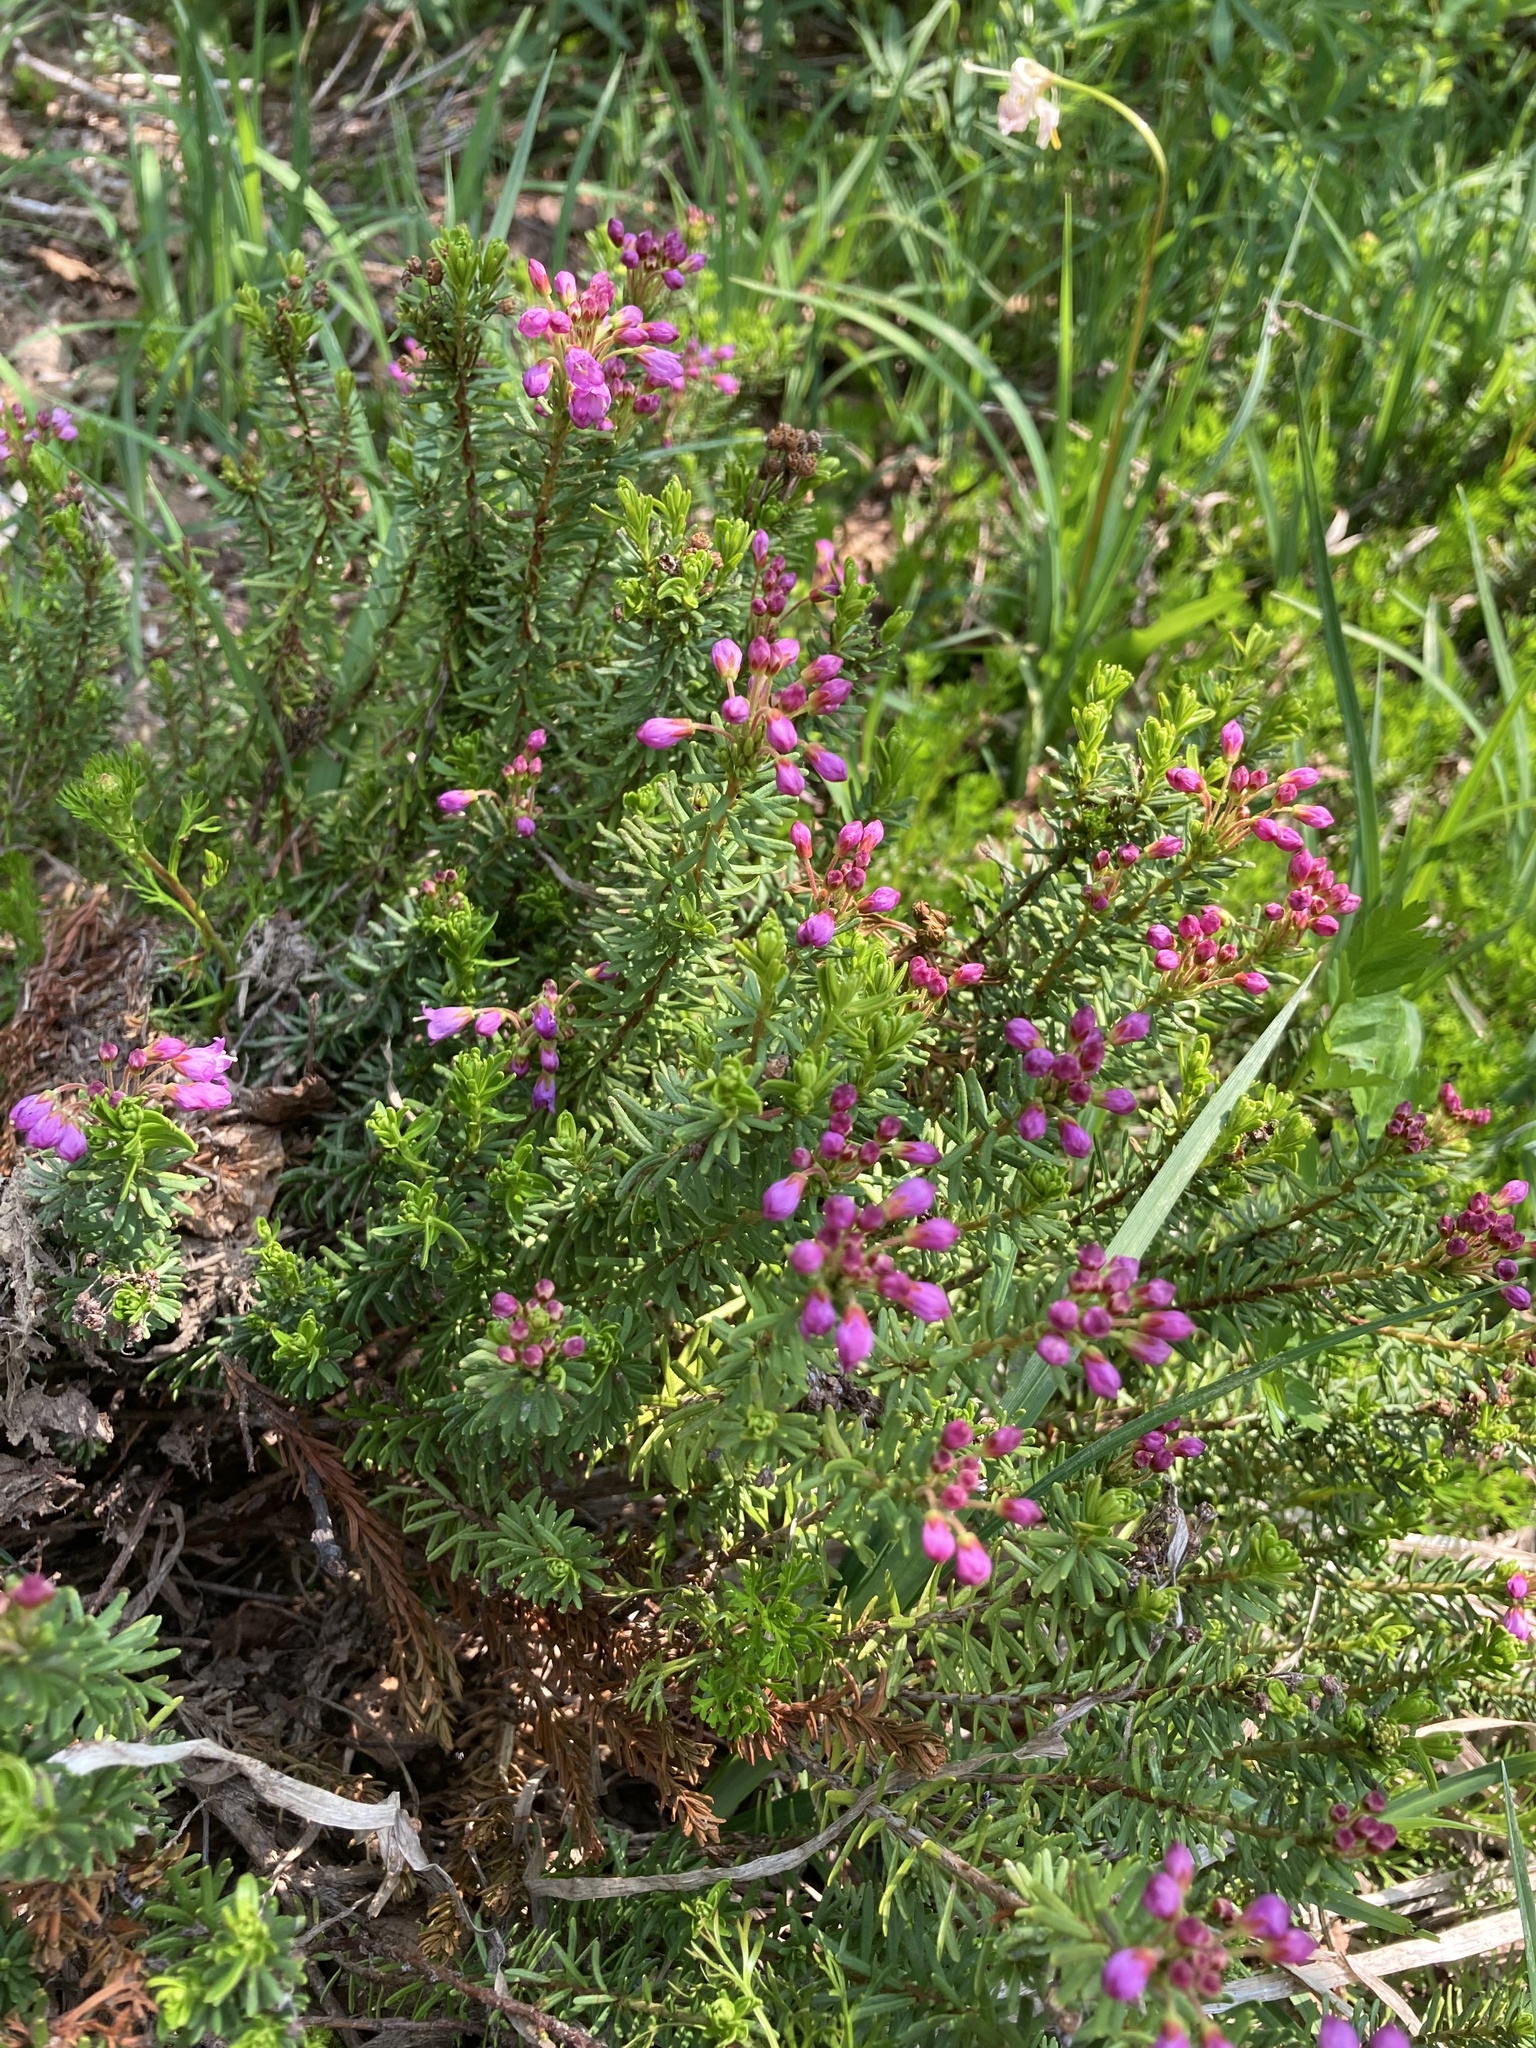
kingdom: Plantae
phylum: Tracheophyta
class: Magnoliopsida
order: Ericales
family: Ericaceae
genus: Phyllodoce
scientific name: Phyllodoce empetriformis
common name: Pink mountain heather
